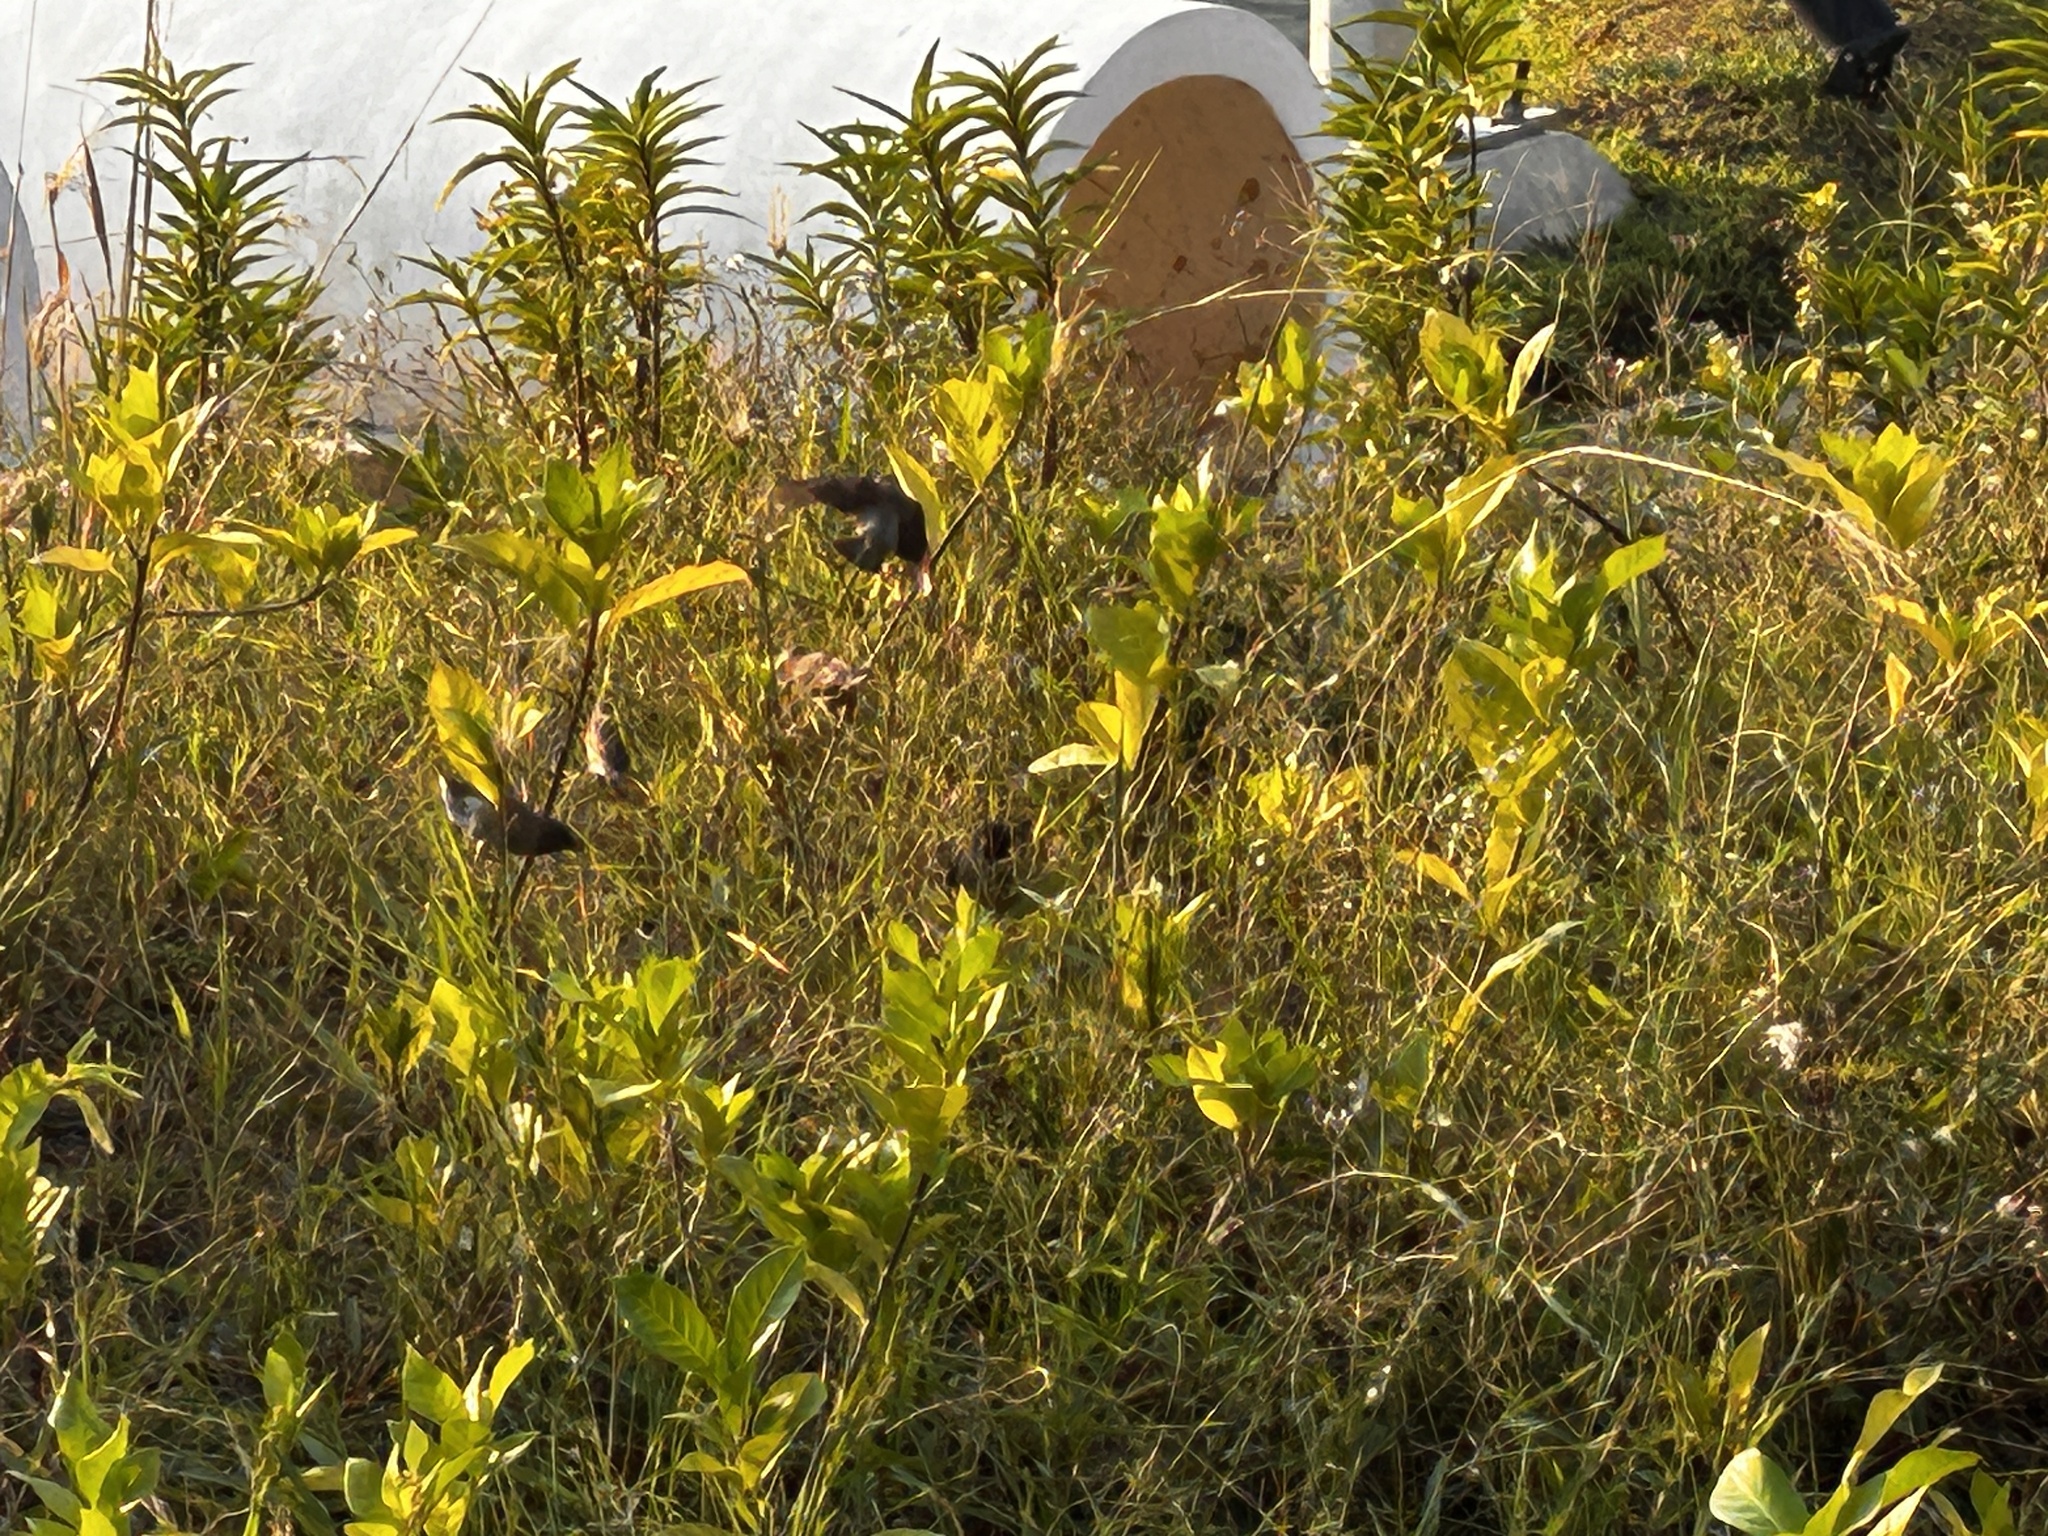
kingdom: Animalia
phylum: Chordata
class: Aves
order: Passeriformes
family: Estrildidae
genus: Lonchura
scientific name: Lonchura punctulata
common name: Scaly-breasted munia
